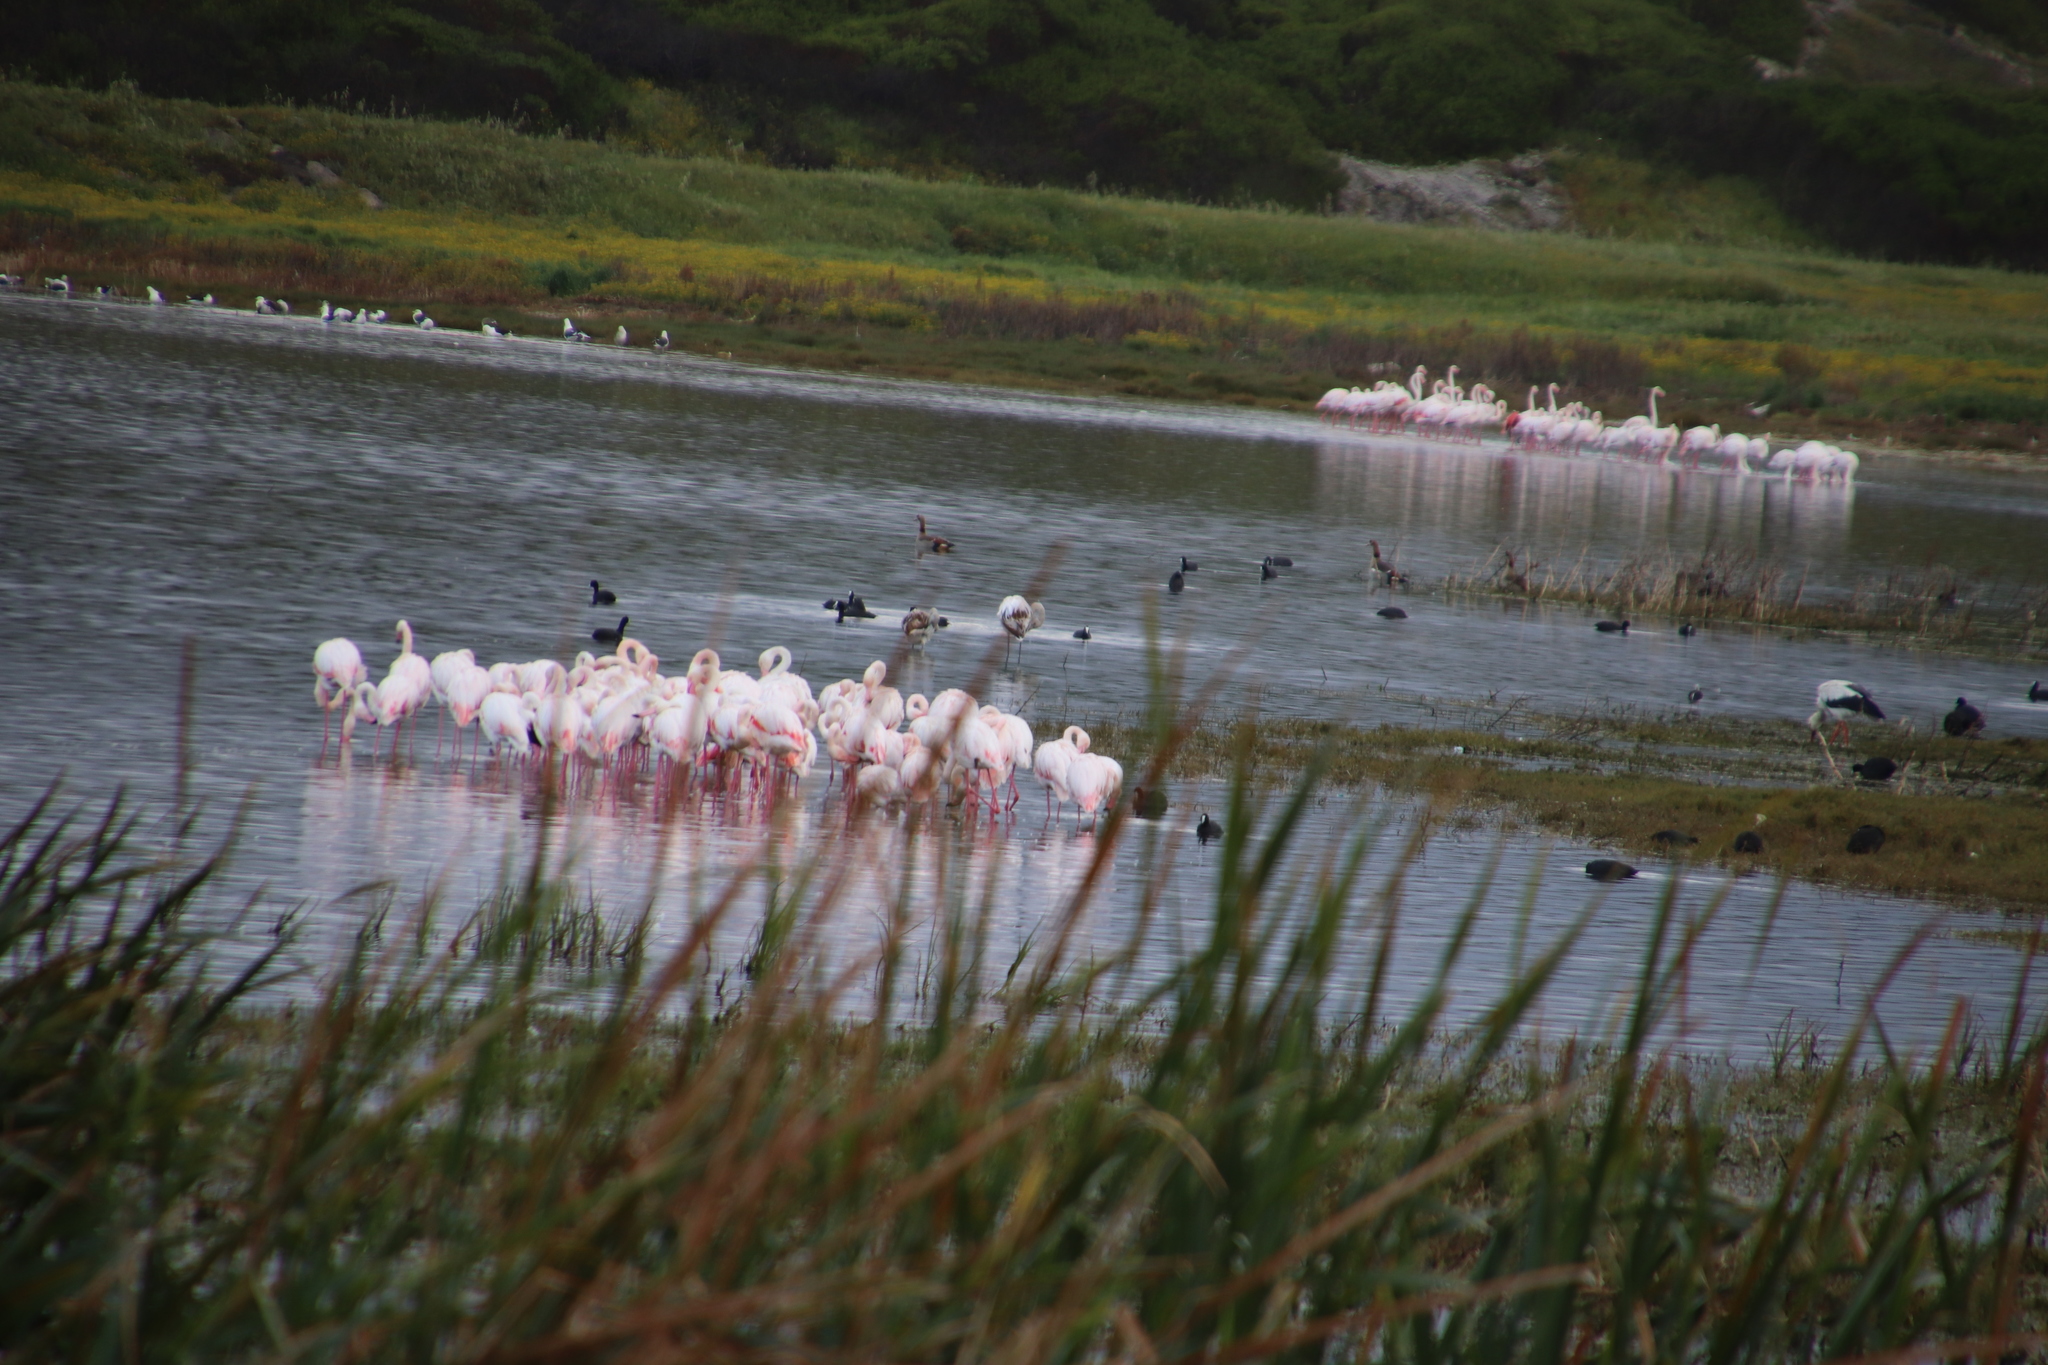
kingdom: Animalia
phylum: Chordata
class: Aves
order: Phoenicopteriformes
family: Phoenicopteridae
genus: Phoenicopterus
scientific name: Phoenicopterus roseus
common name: Greater flamingo
